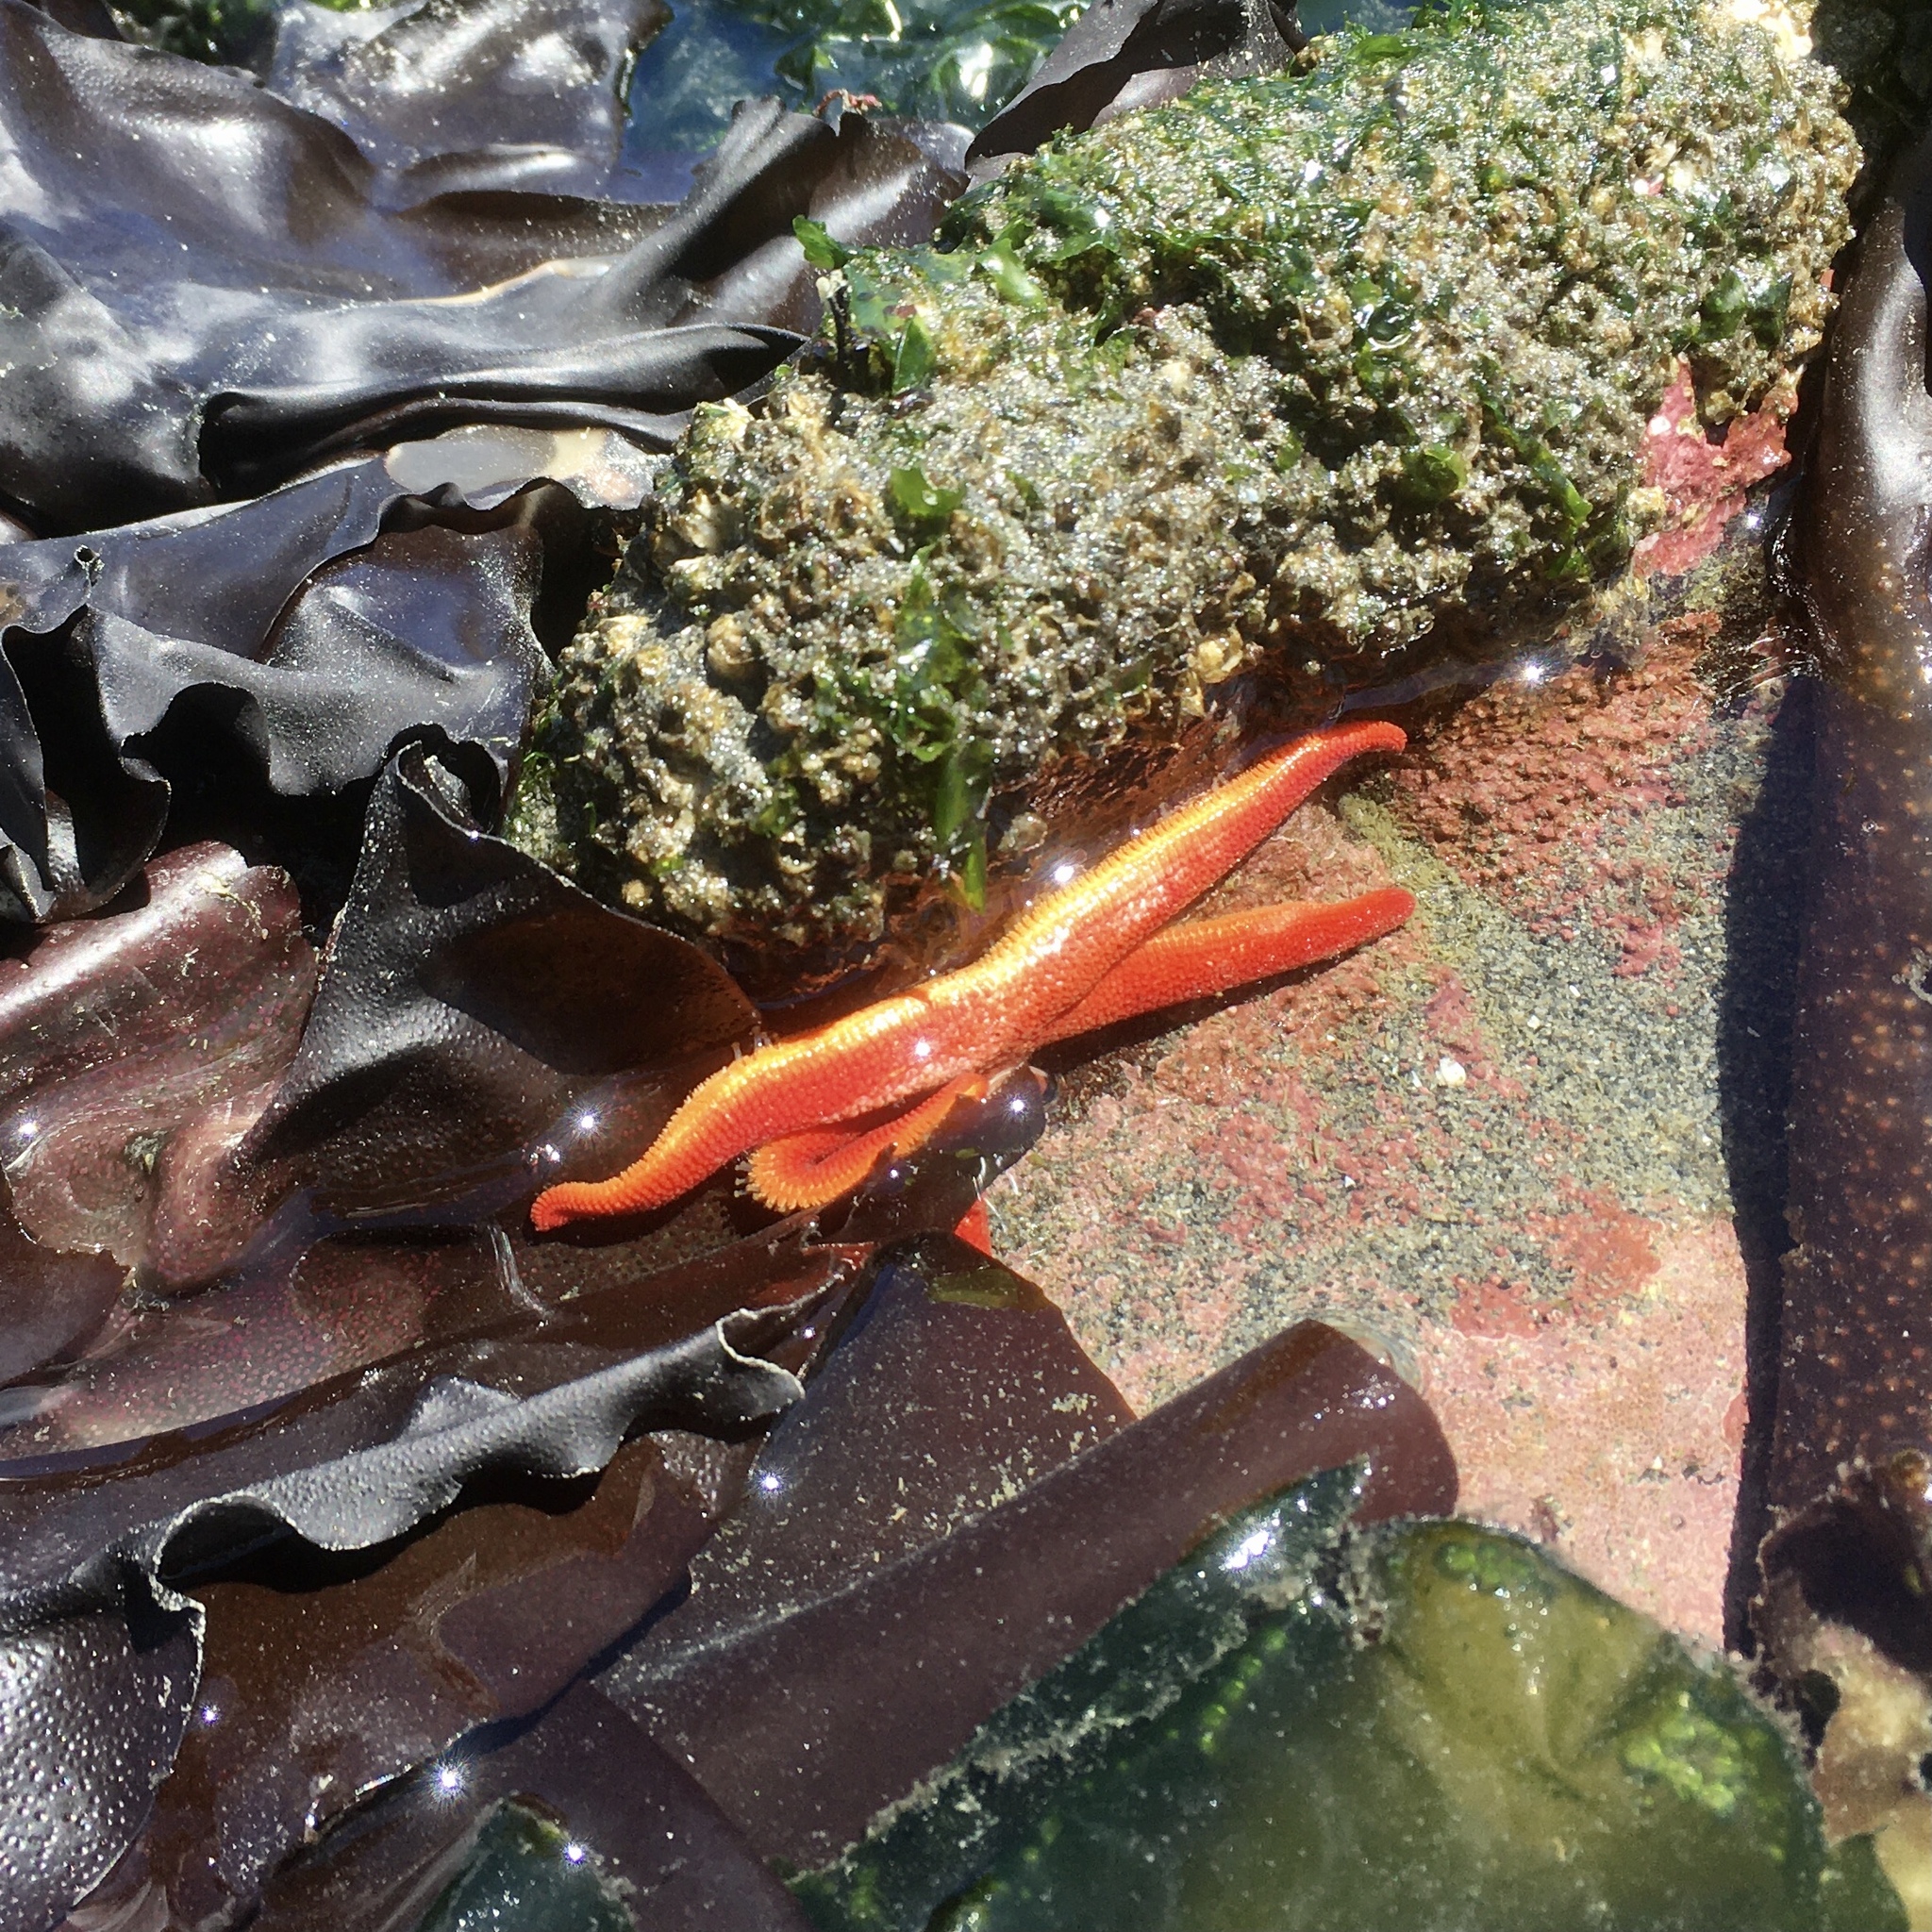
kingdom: Animalia
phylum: Echinodermata
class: Asteroidea
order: Spinulosida
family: Echinasteridae
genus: Henricia
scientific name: Henricia leviuscula
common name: Pacific blood star
